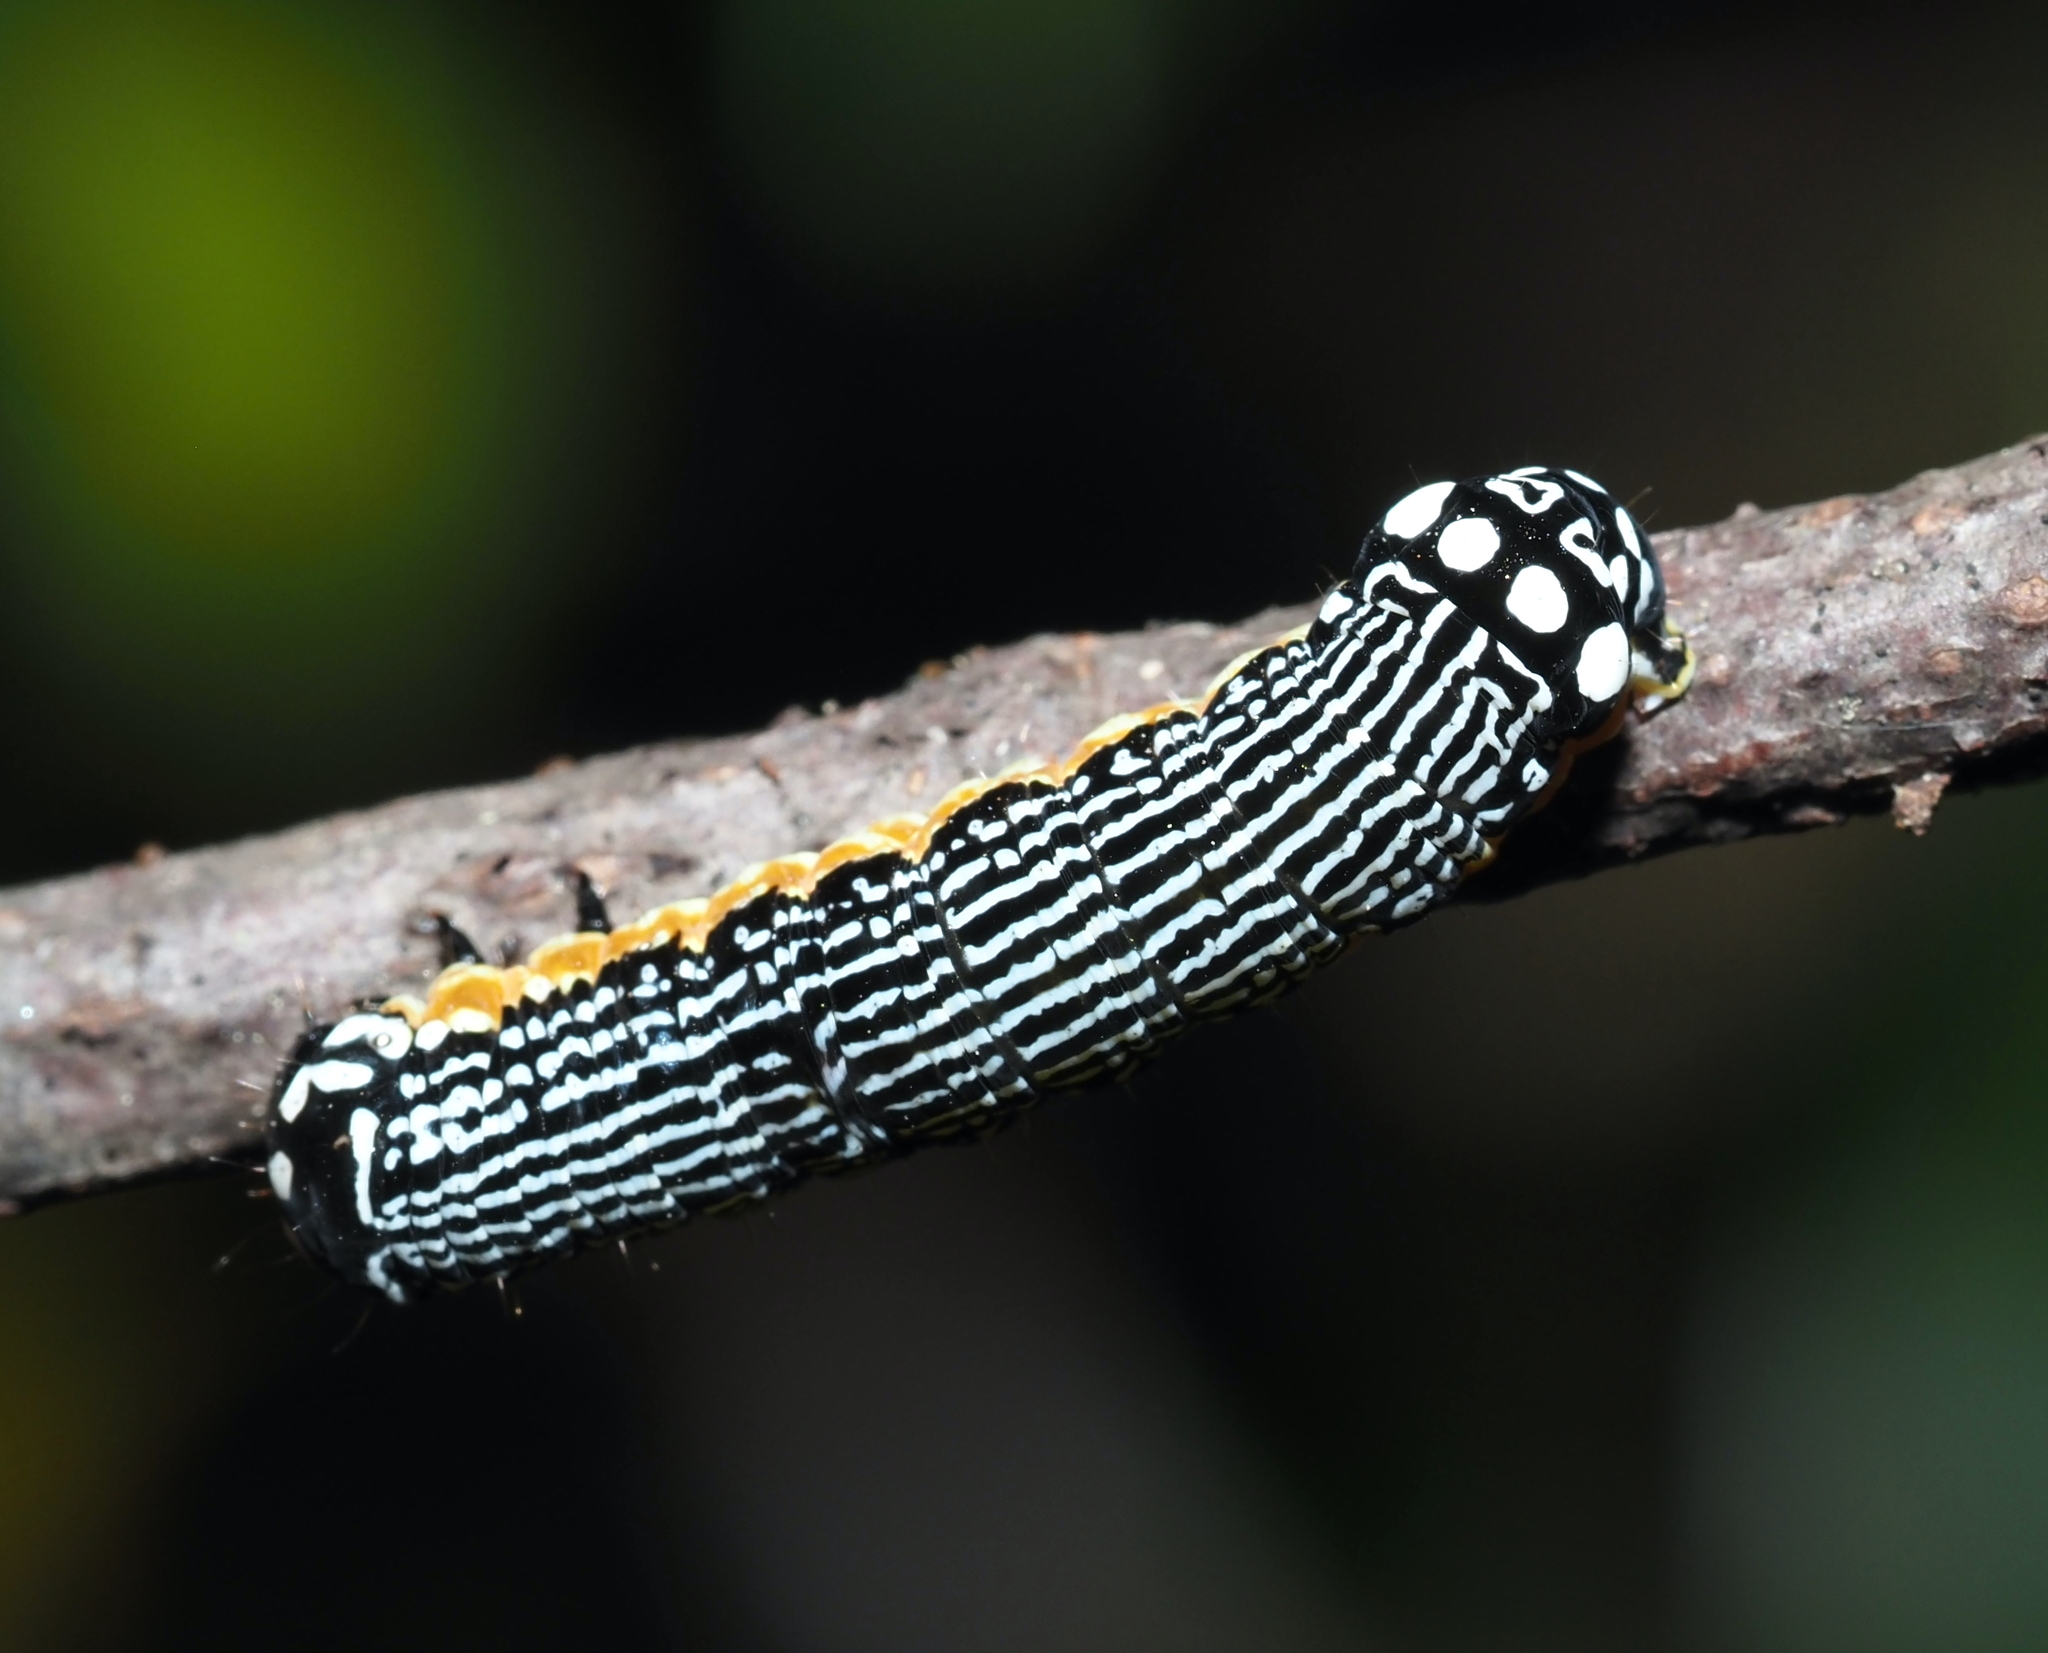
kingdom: Animalia
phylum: Arthropoda
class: Insecta
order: Lepidoptera
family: Noctuidae
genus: Phosphila
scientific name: Phosphila turbulenta
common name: Turbulent phosphila moth
